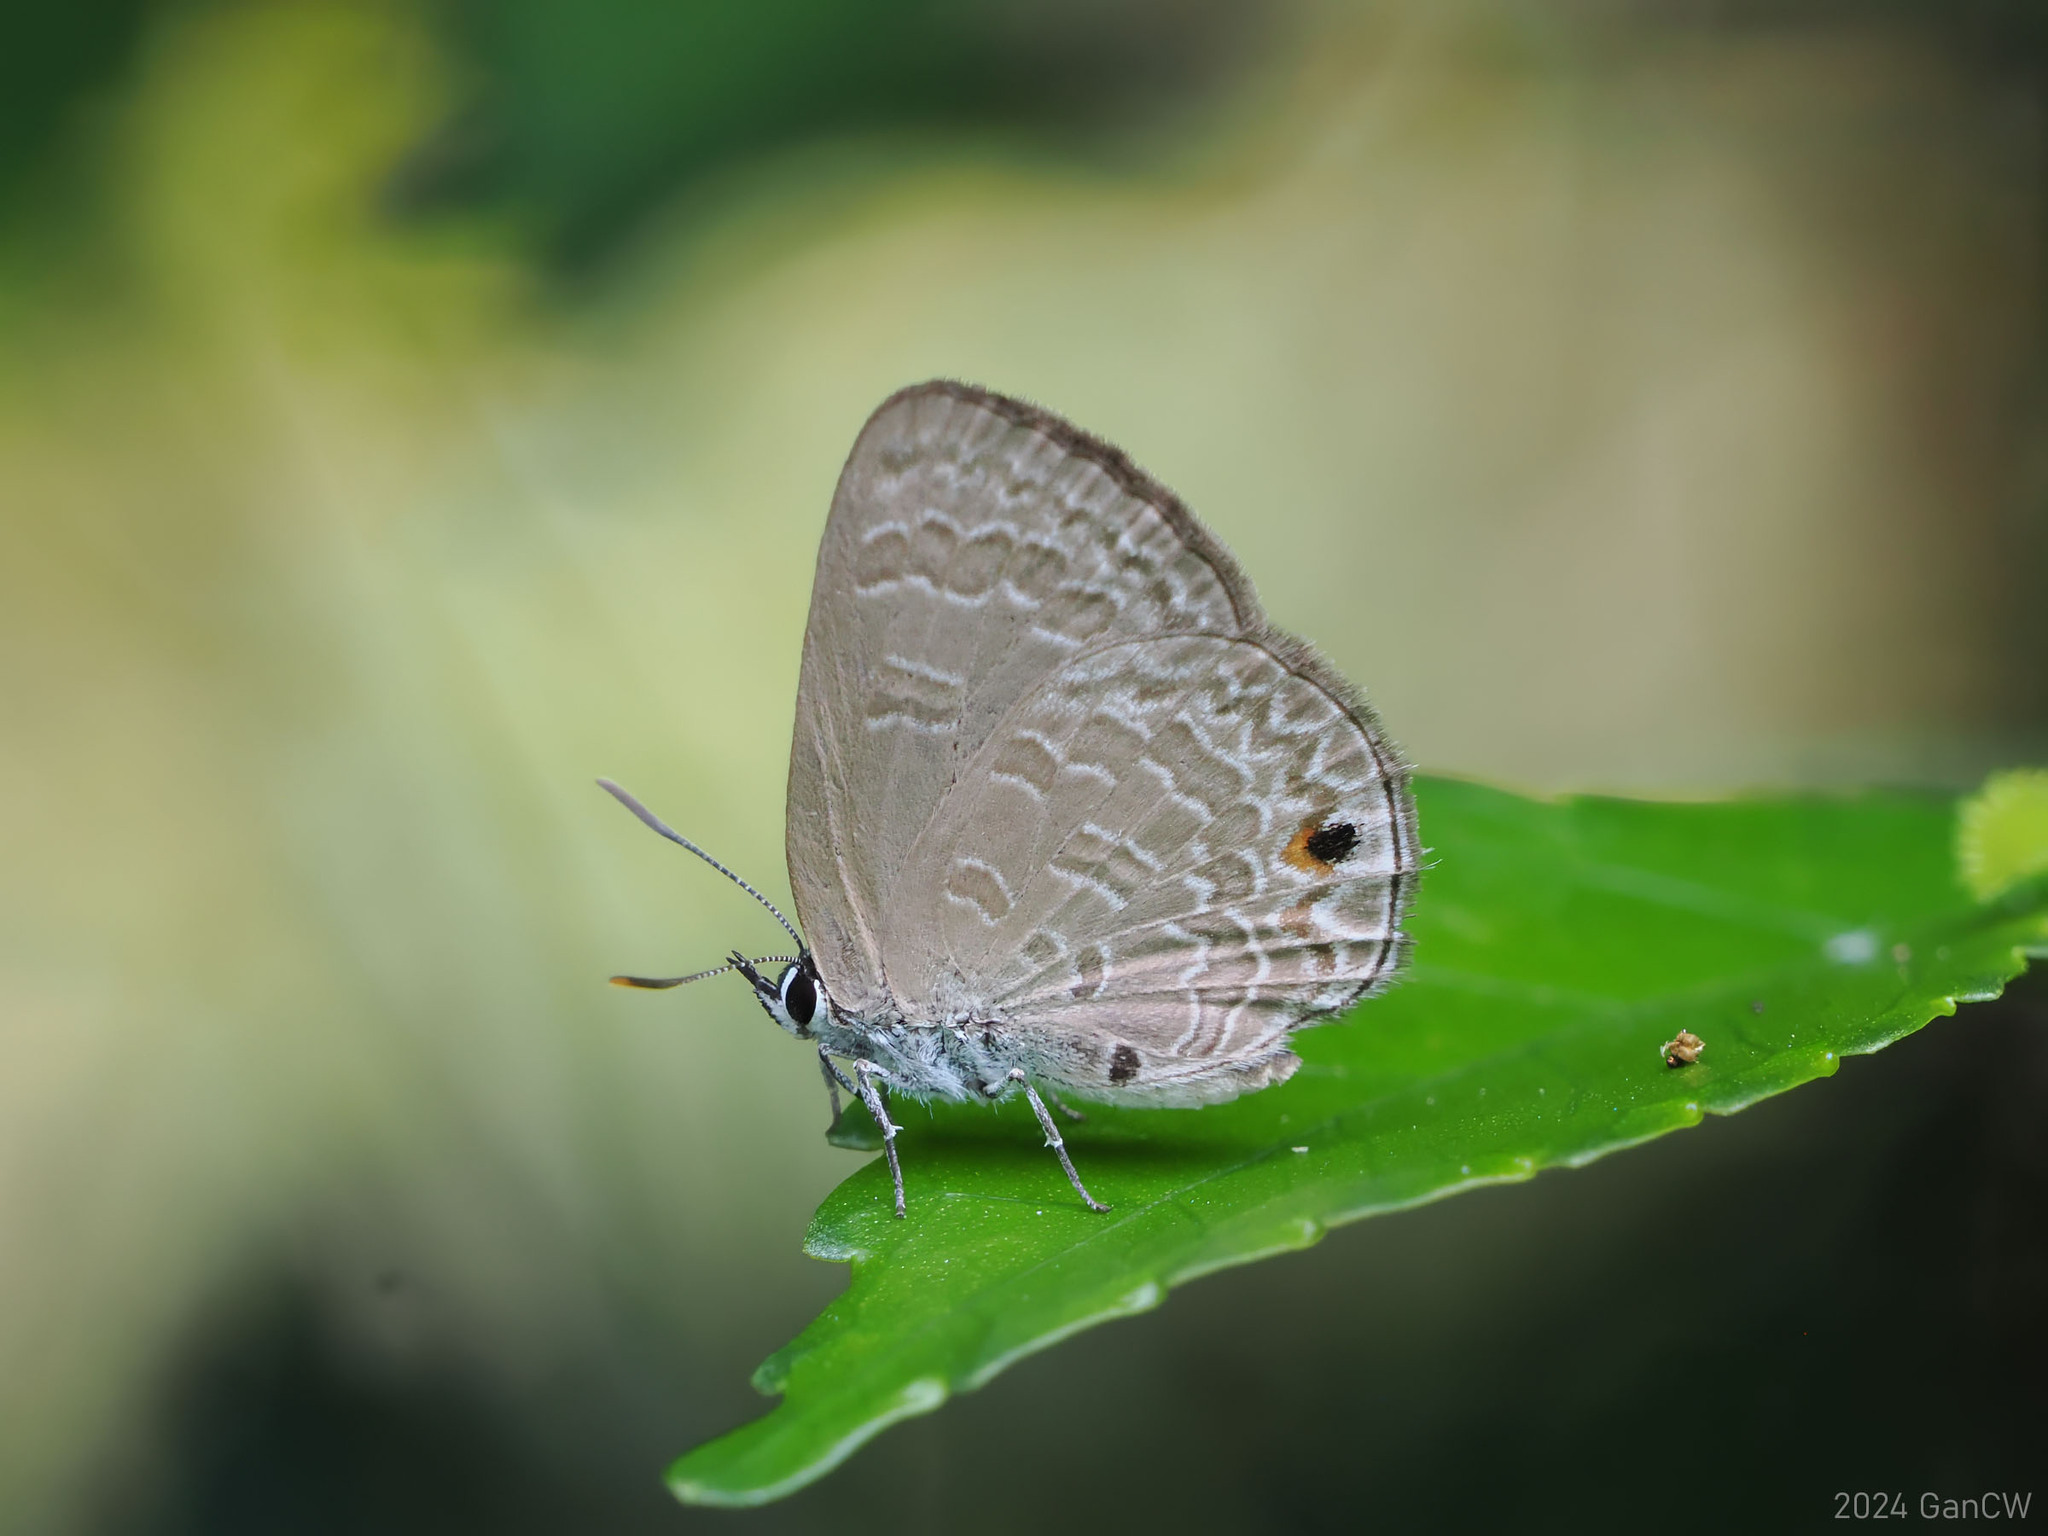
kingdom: Animalia
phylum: Arthropoda
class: Insecta
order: Lepidoptera
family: Lycaenidae
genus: Anthene
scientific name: Anthene emolus
